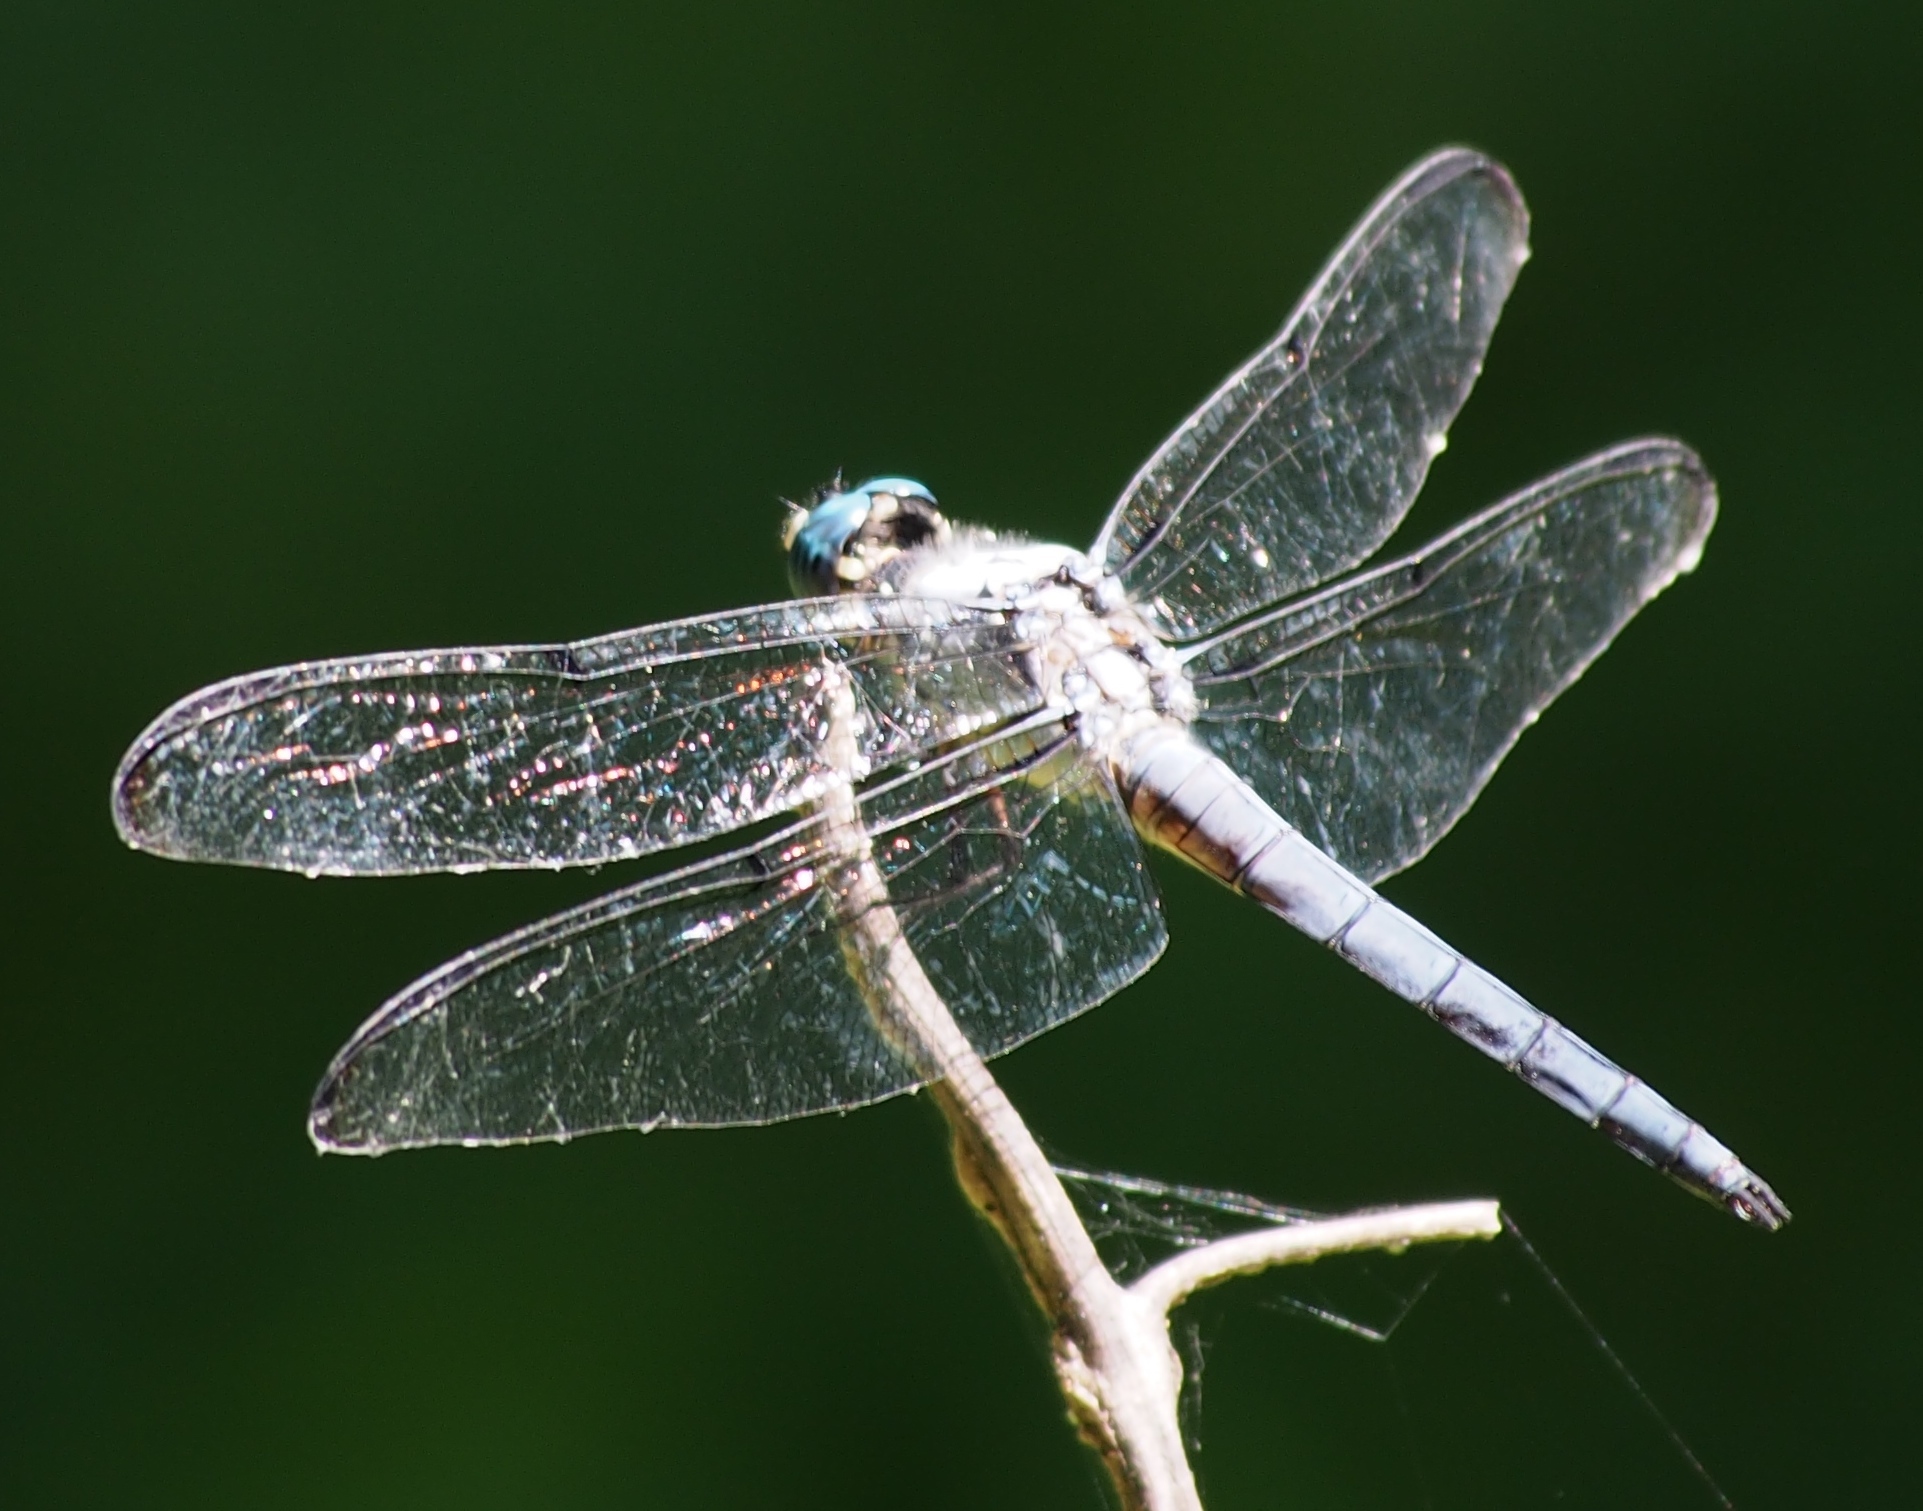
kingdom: Animalia
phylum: Arthropoda
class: Insecta
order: Odonata
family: Libellulidae
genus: Libellula
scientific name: Libellula vibrans
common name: Great blue skimmer
